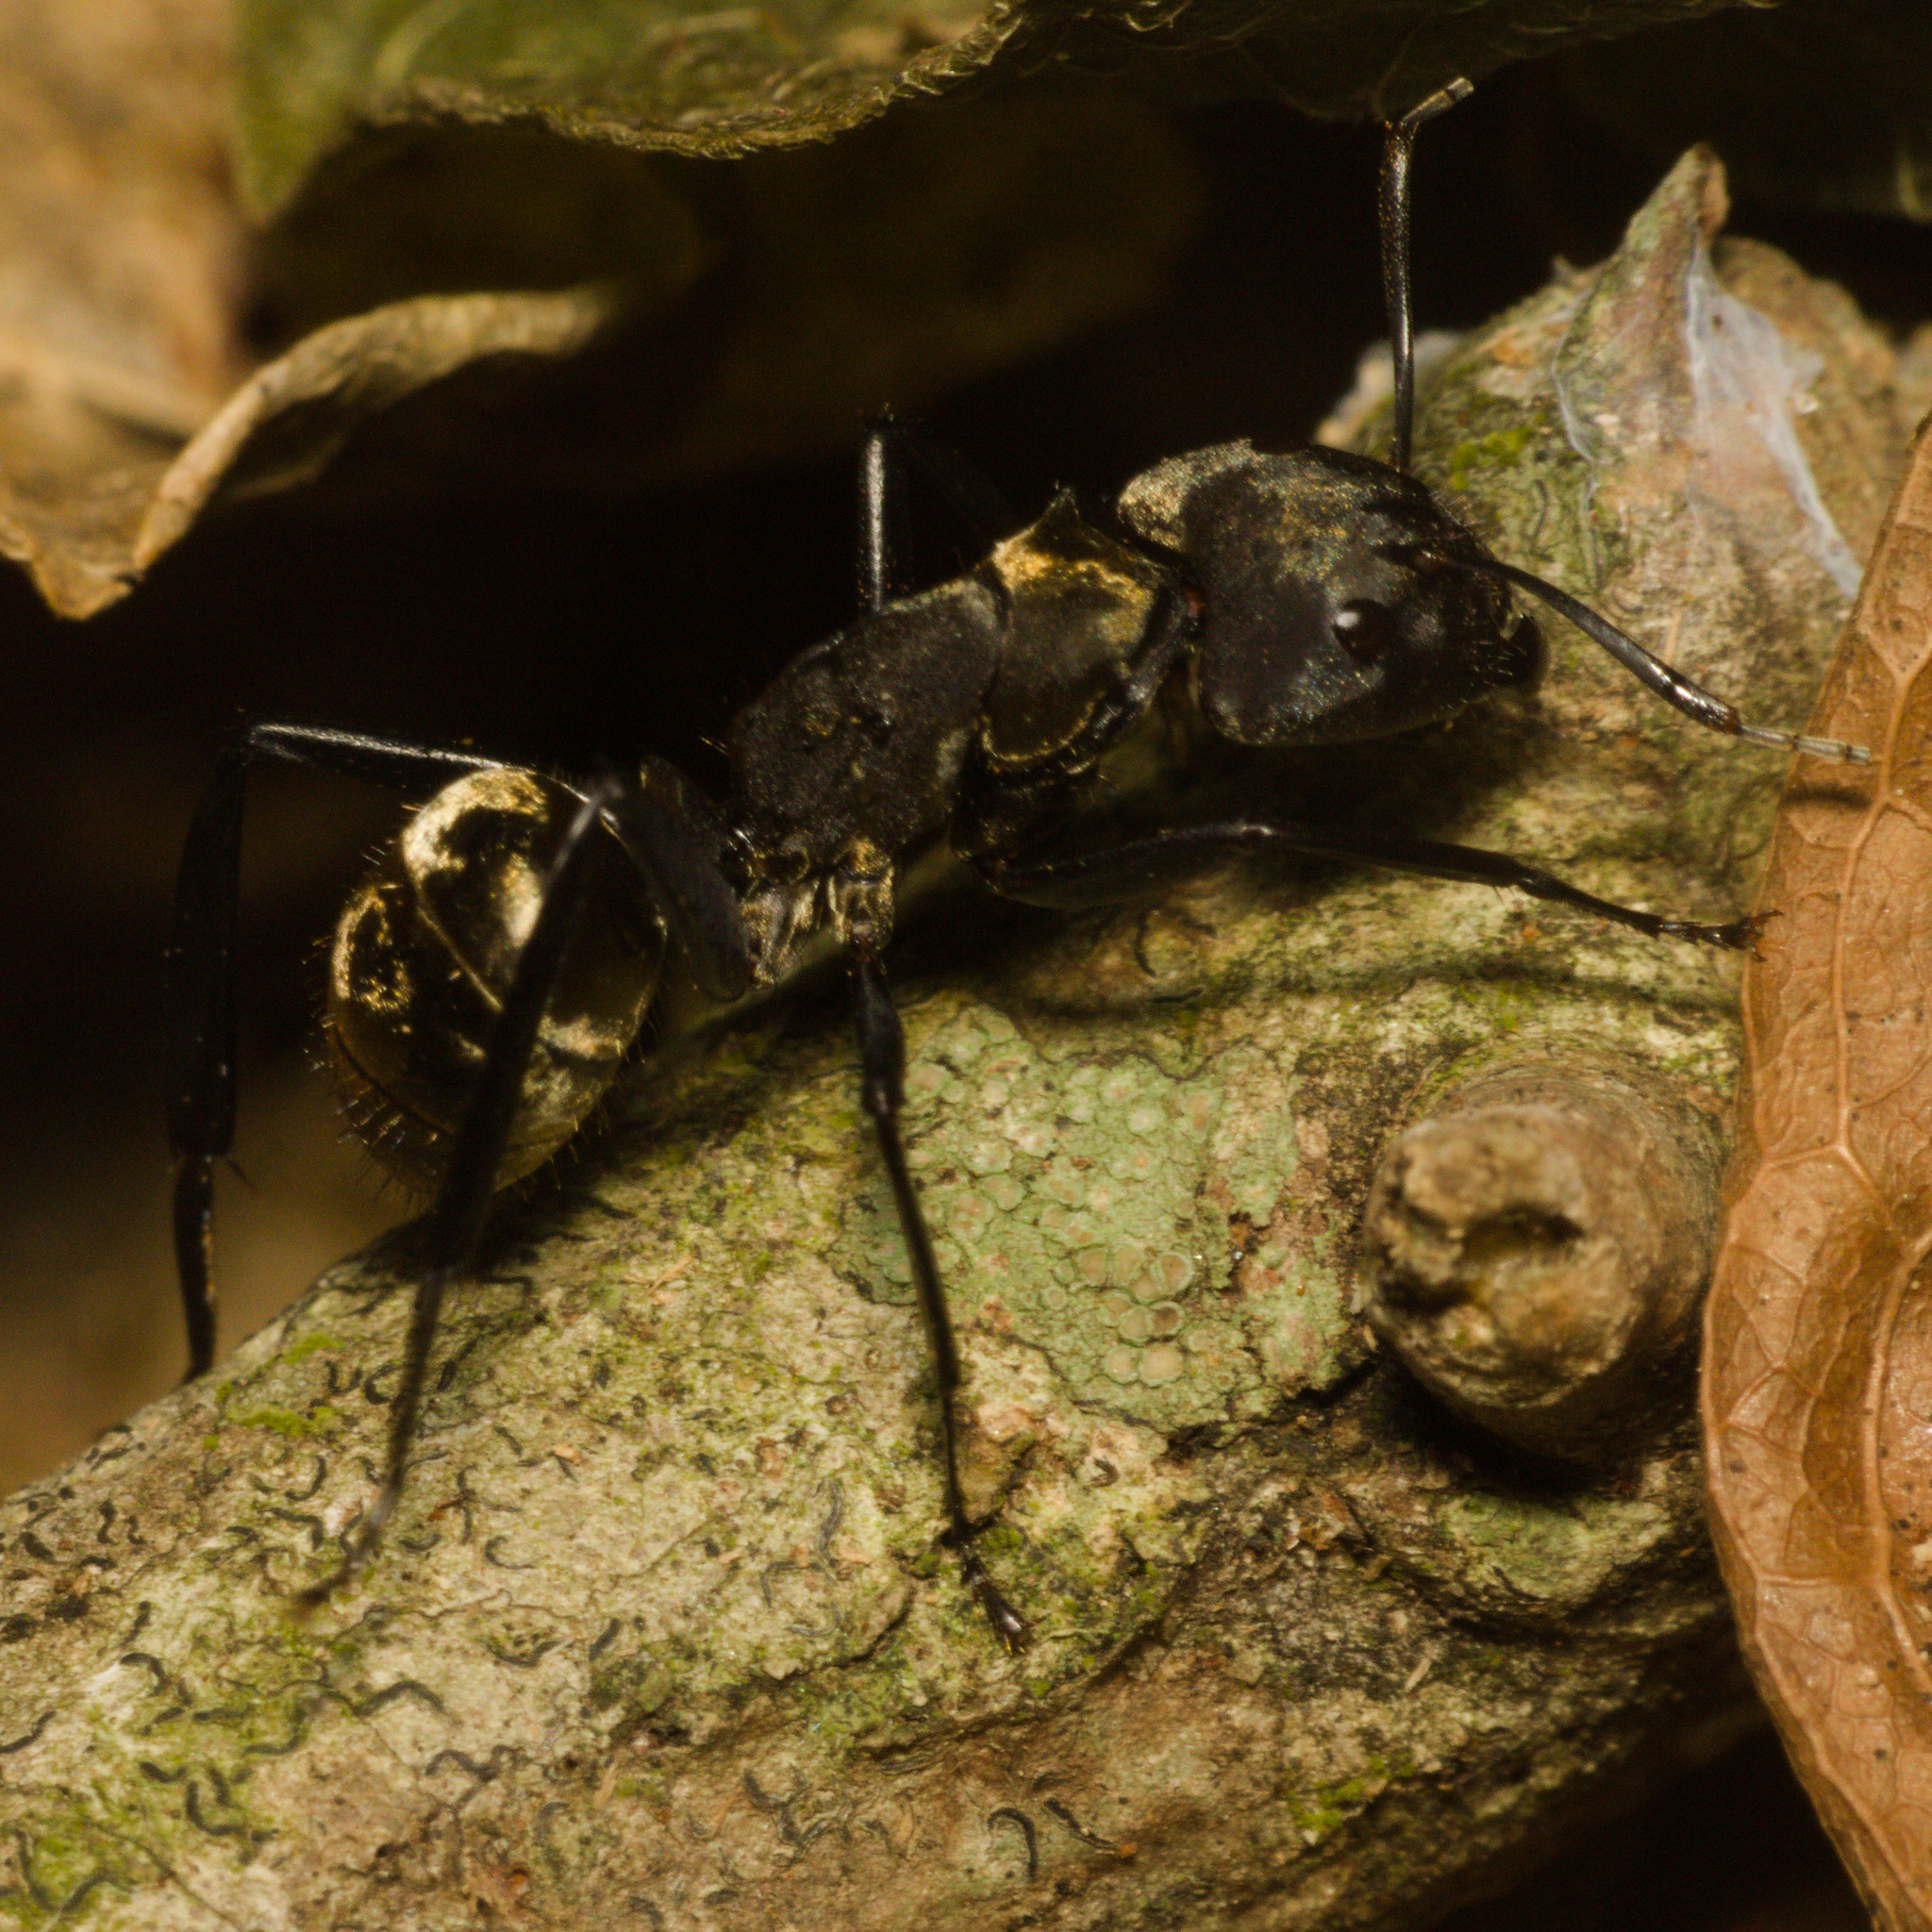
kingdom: Animalia
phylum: Arthropoda
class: Insecta
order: Hymenoptera
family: Formicidae
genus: Camponotus
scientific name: Camponotus sericeiventris
